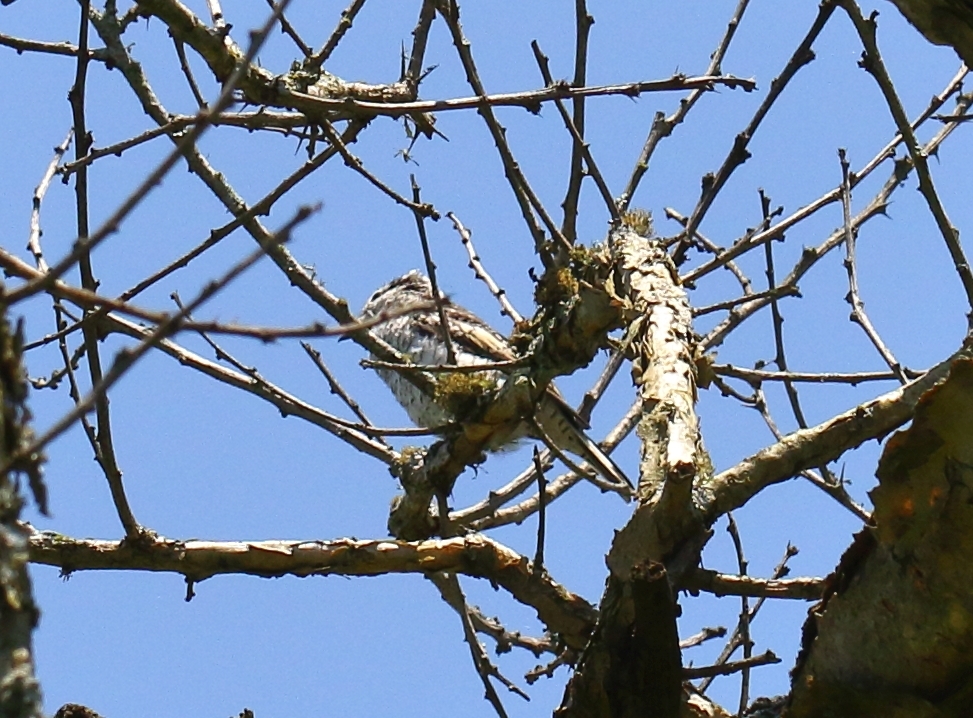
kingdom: Animalia
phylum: Chordata
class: Aves
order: Passeriformes
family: Malaconotidae
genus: Nilaus
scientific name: Nilaus afer
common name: Brubru
